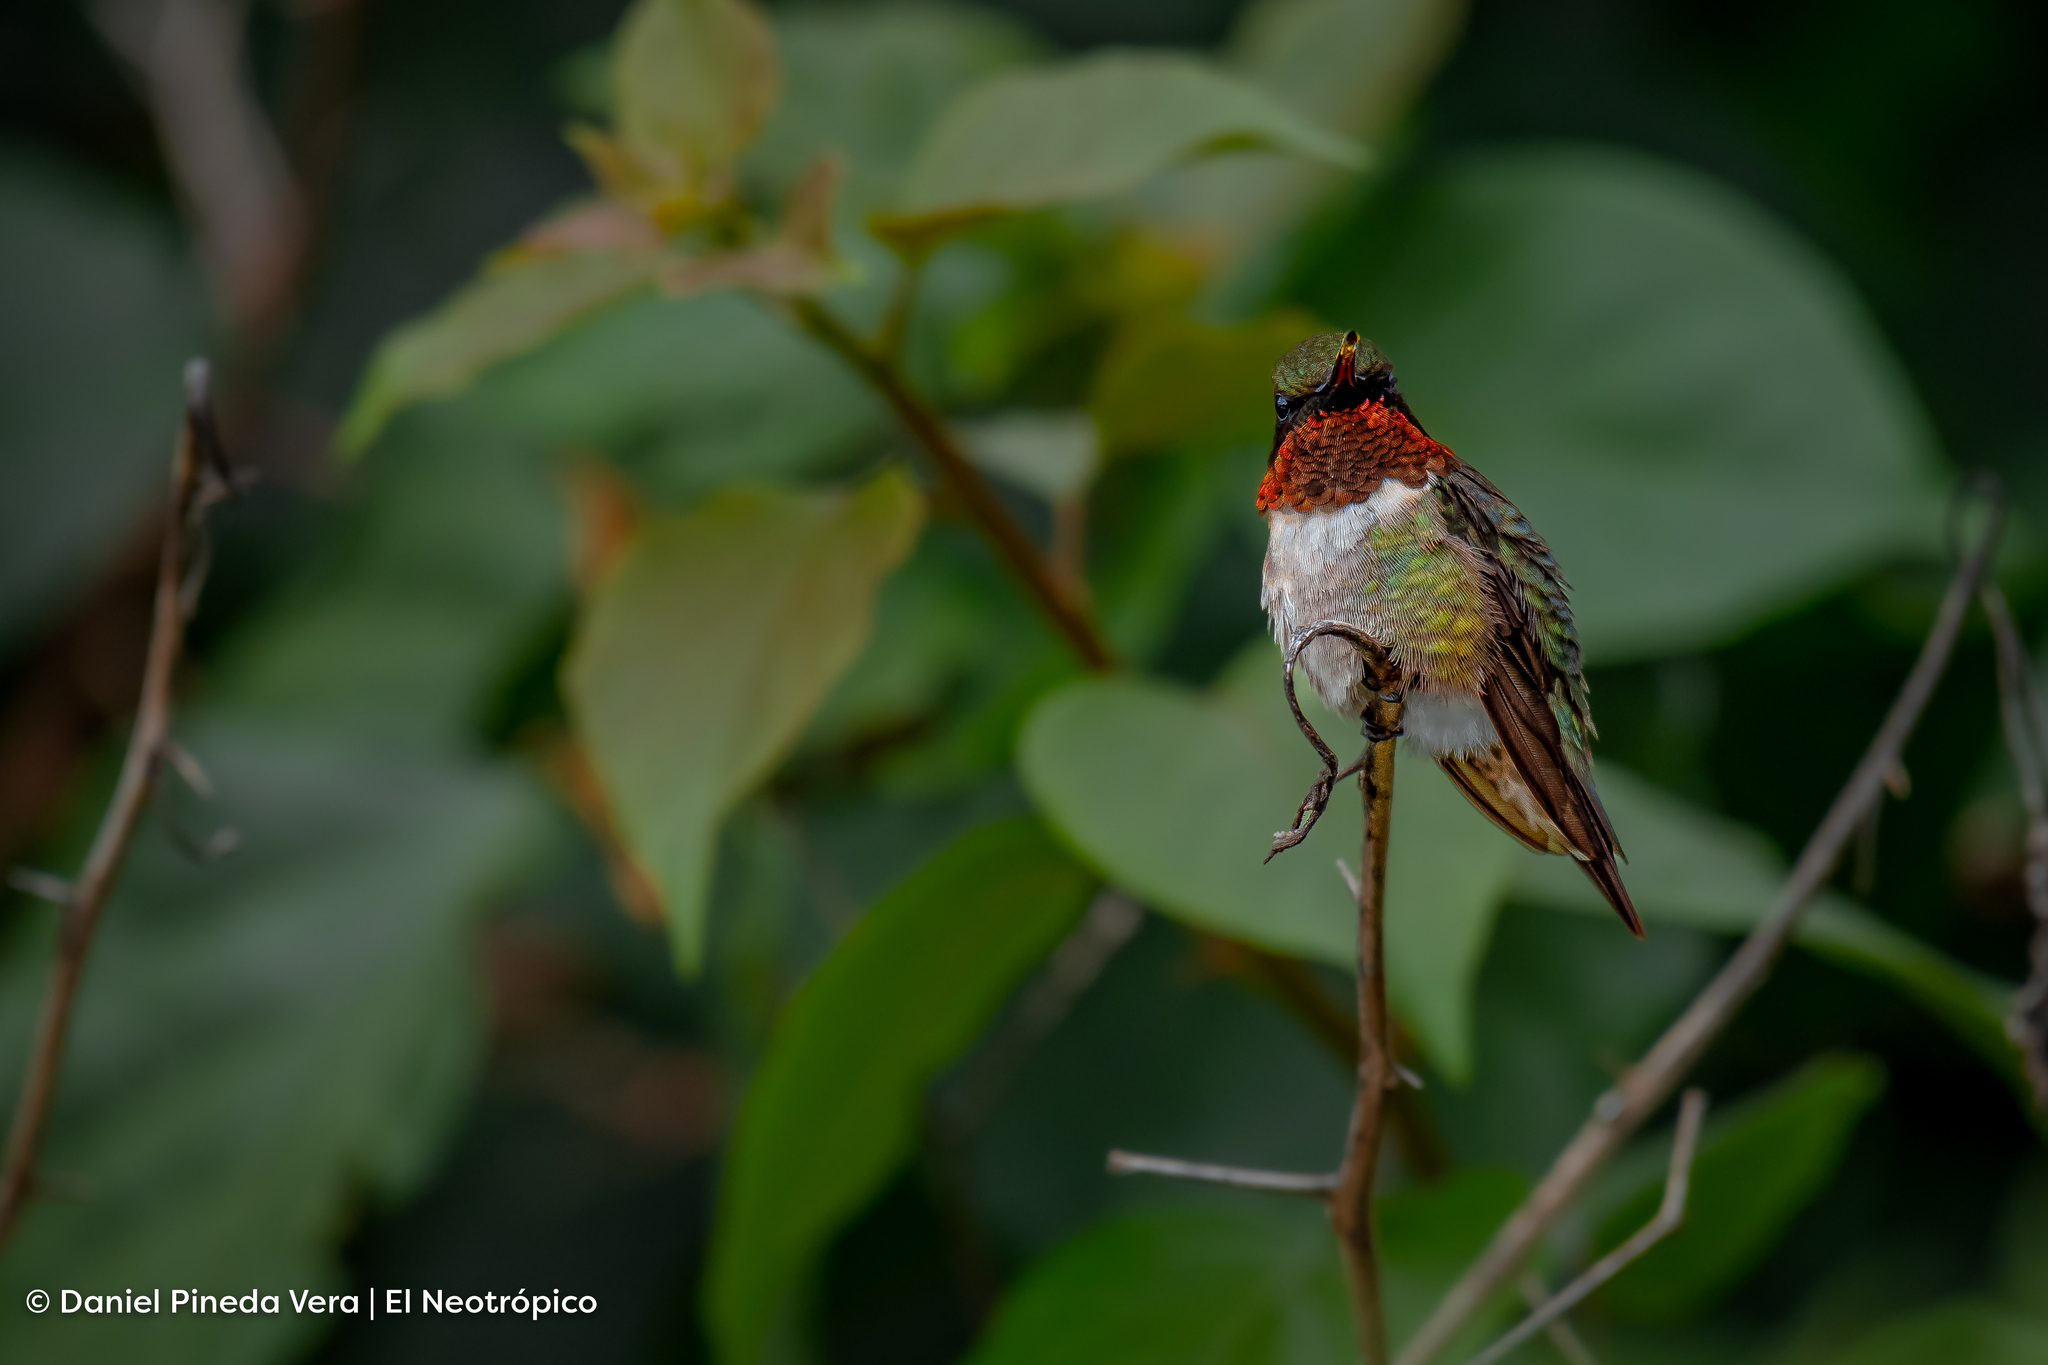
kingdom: Animalia
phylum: Chordata
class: Aves
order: Apodiformes
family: Trochilidae
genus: Archilochus
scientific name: Archilochus colubris
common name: Ruby-throated hummingbird
